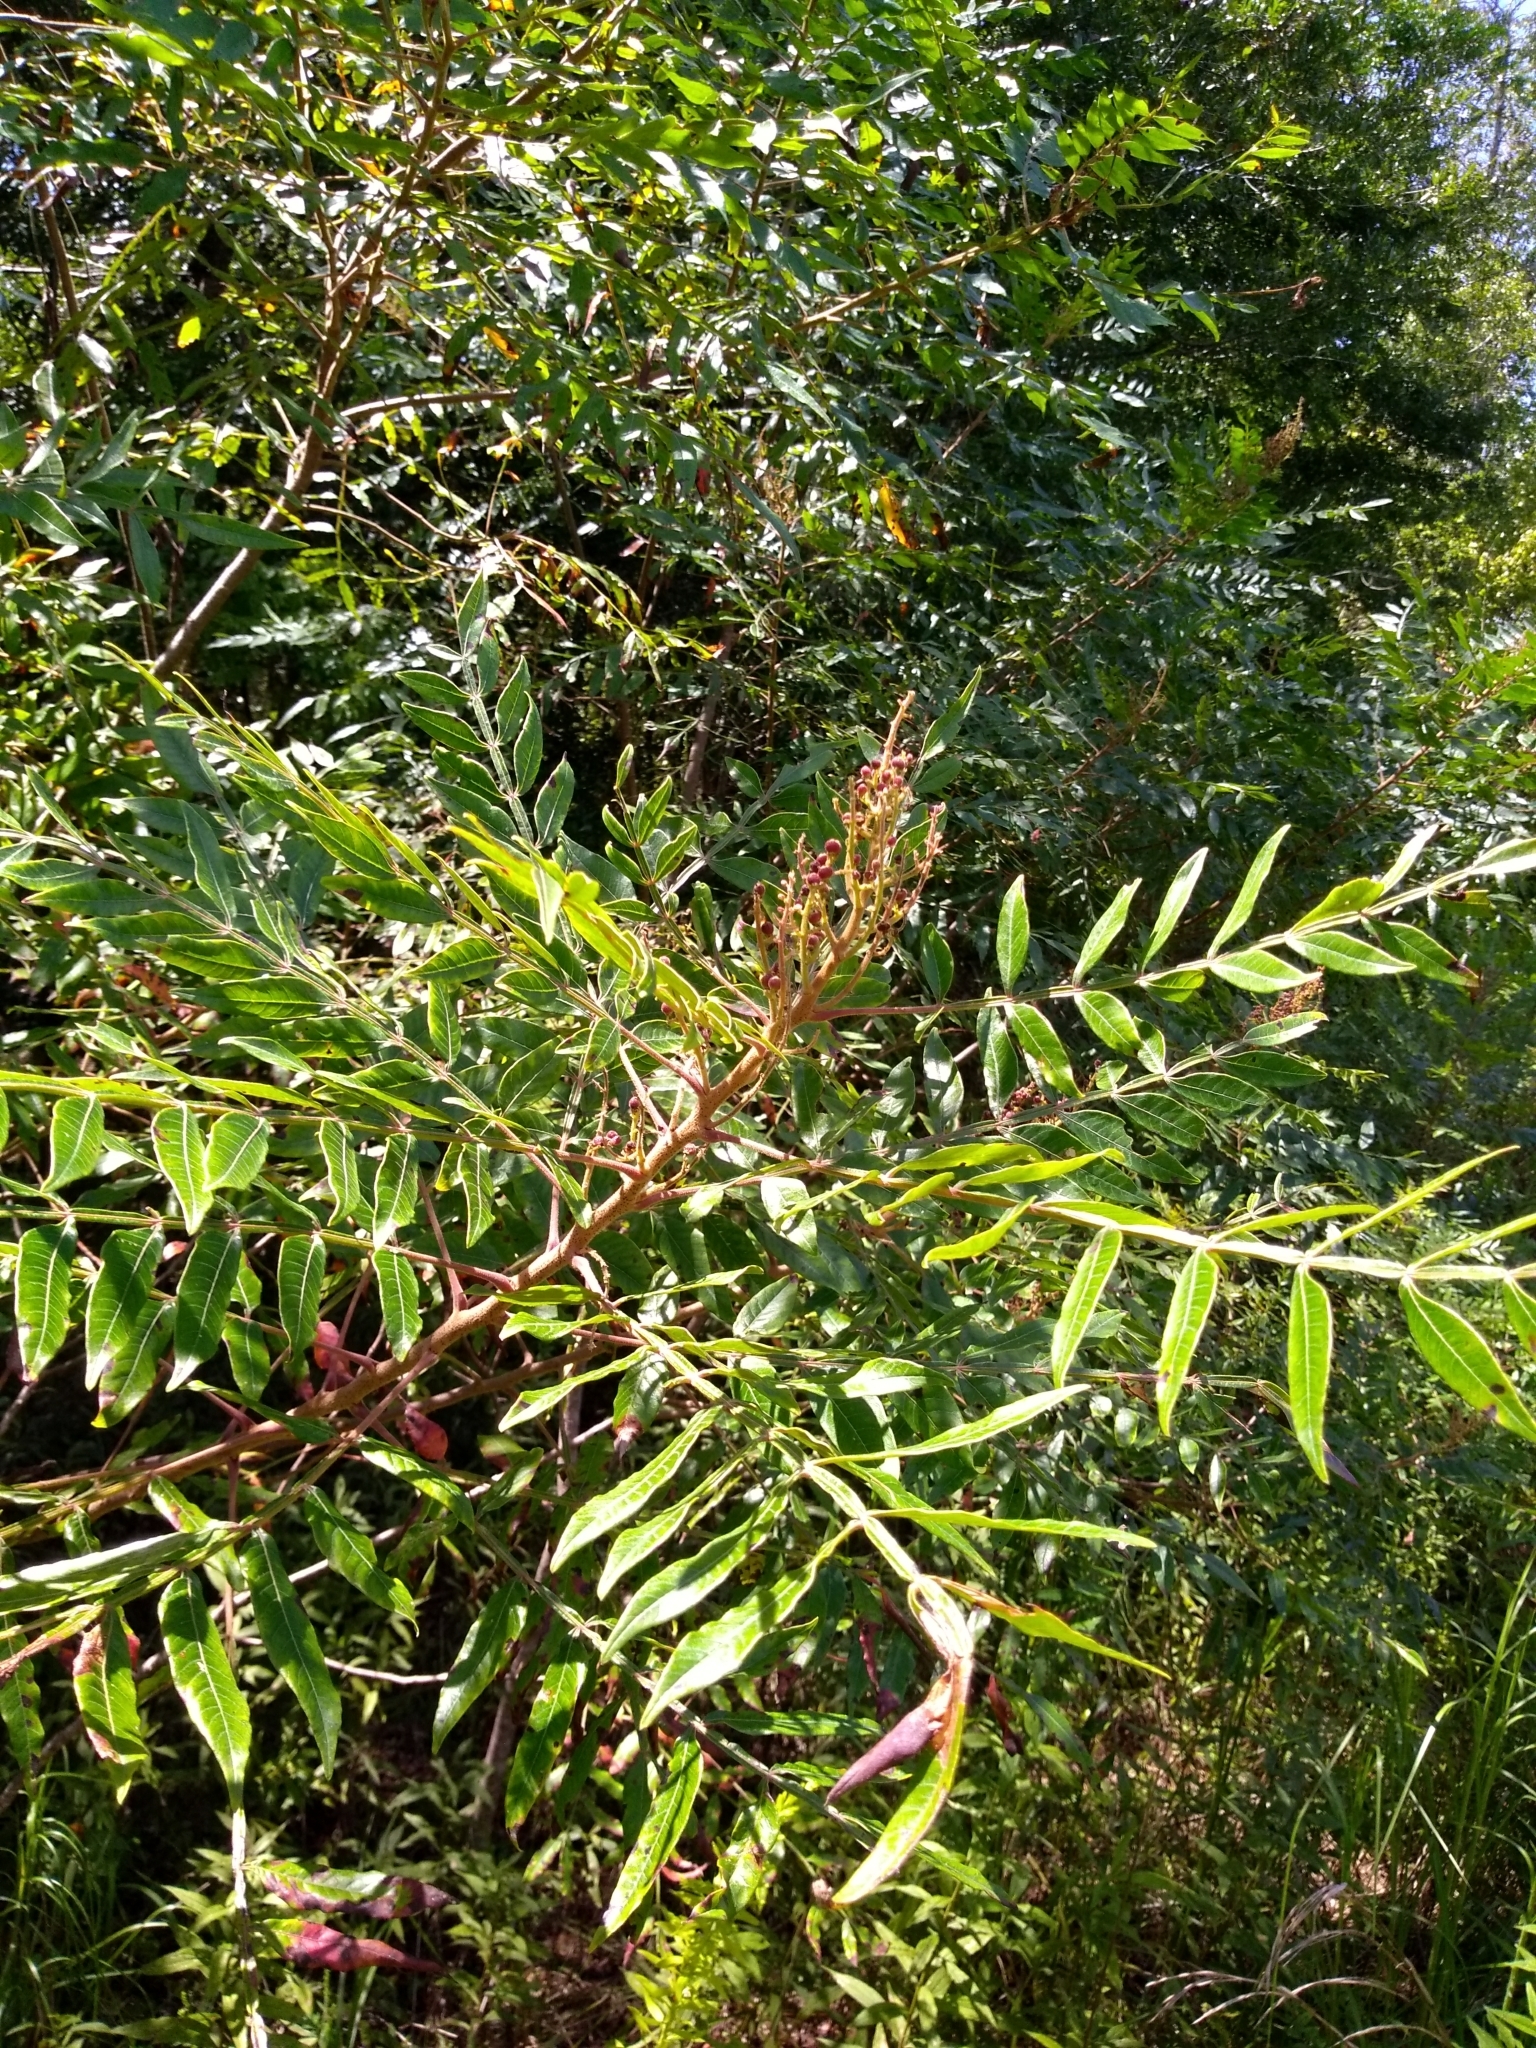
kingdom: Plantae
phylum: Tracheophyta
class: Magnoliopsida
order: Sapindales
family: Anacardiaceae
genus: Rhus
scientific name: Rhus copallina
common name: Shining sumac
